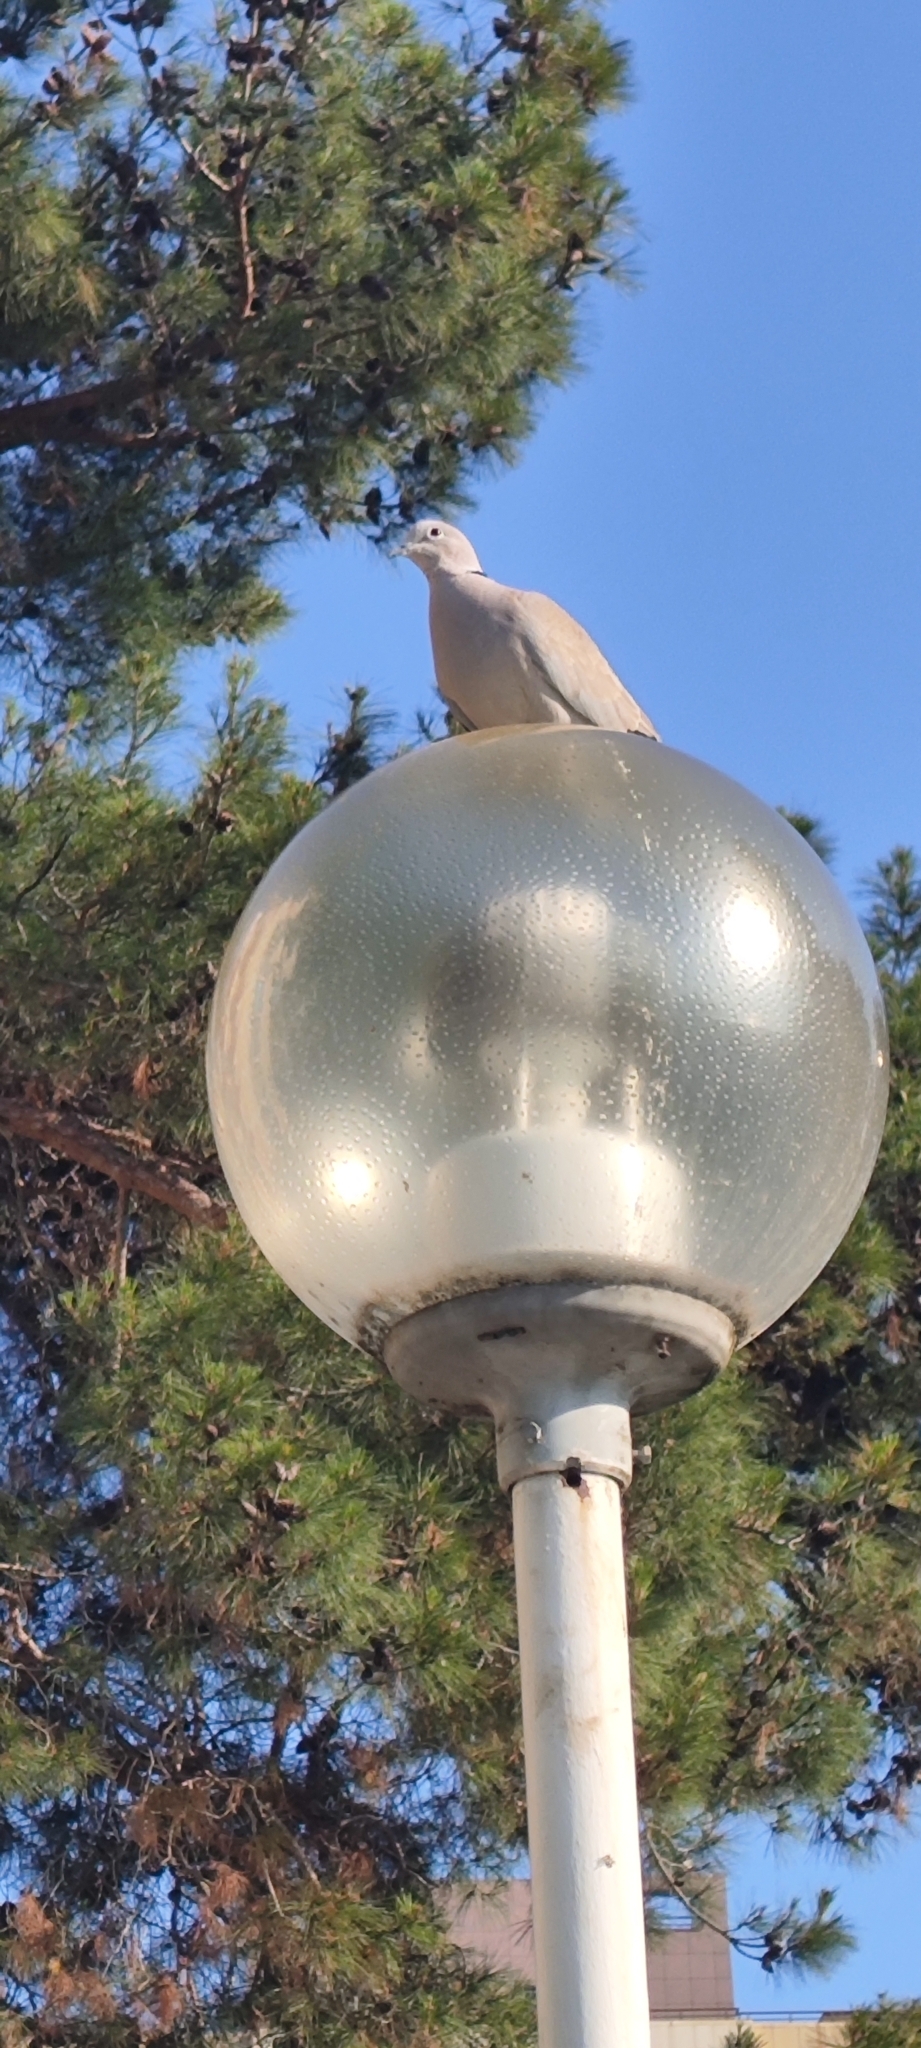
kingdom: Animalia
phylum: Chordata
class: Aves
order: Columbiformes
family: Columbidae
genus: Streptopelia
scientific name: Streptopelia decaocto
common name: Eurasian collared dove
